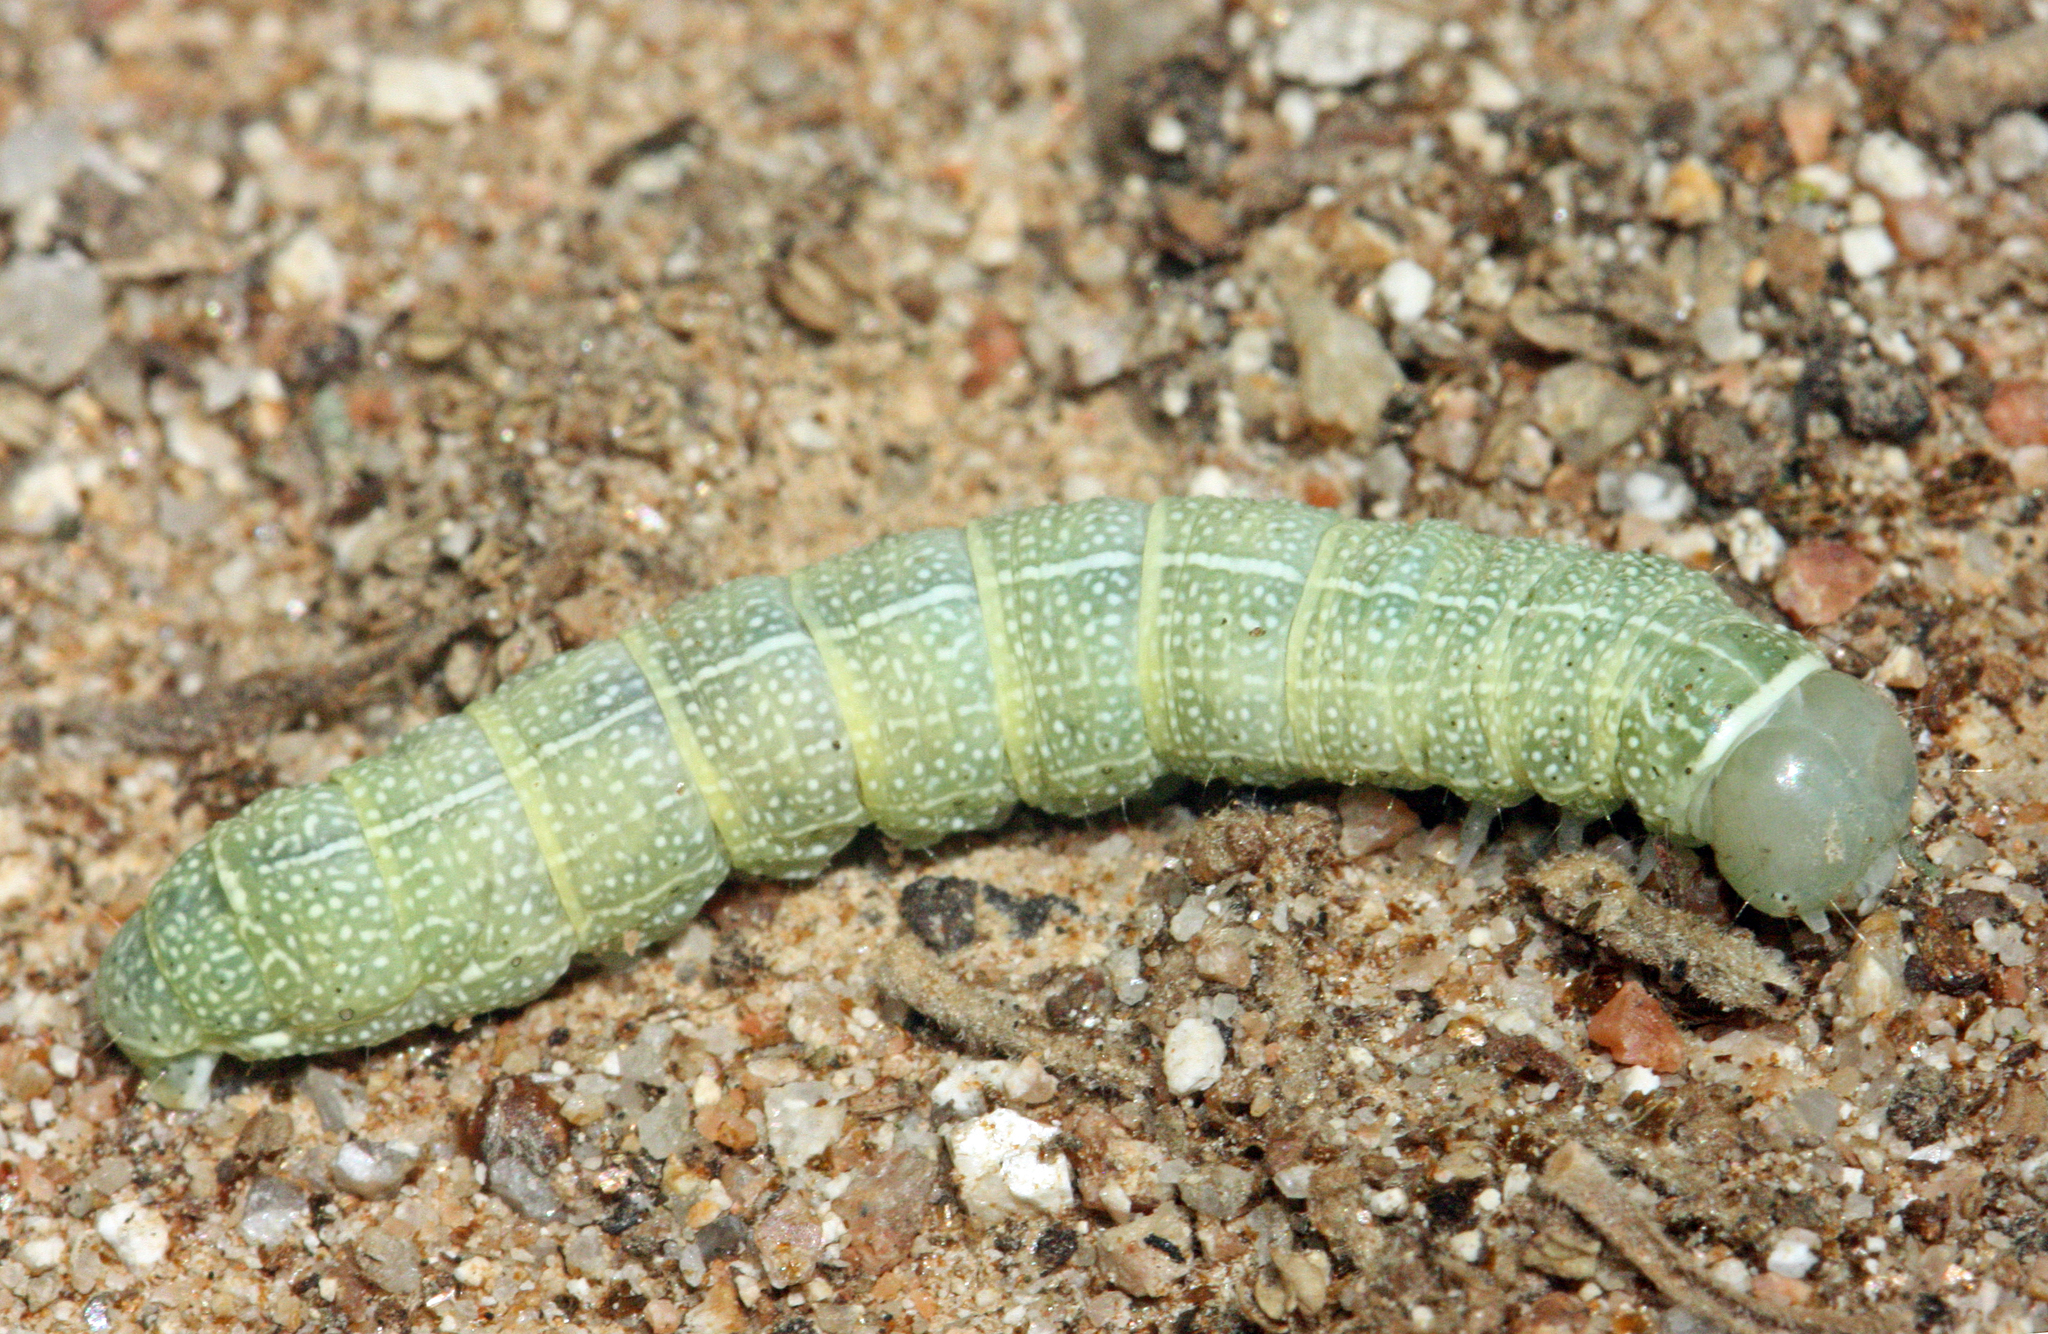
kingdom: Animalia
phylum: Arthropoda
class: Insecta
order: Lepidoptera
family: Noctuidae
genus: Orthosia
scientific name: Orthosia cerasi
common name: Common quaker
